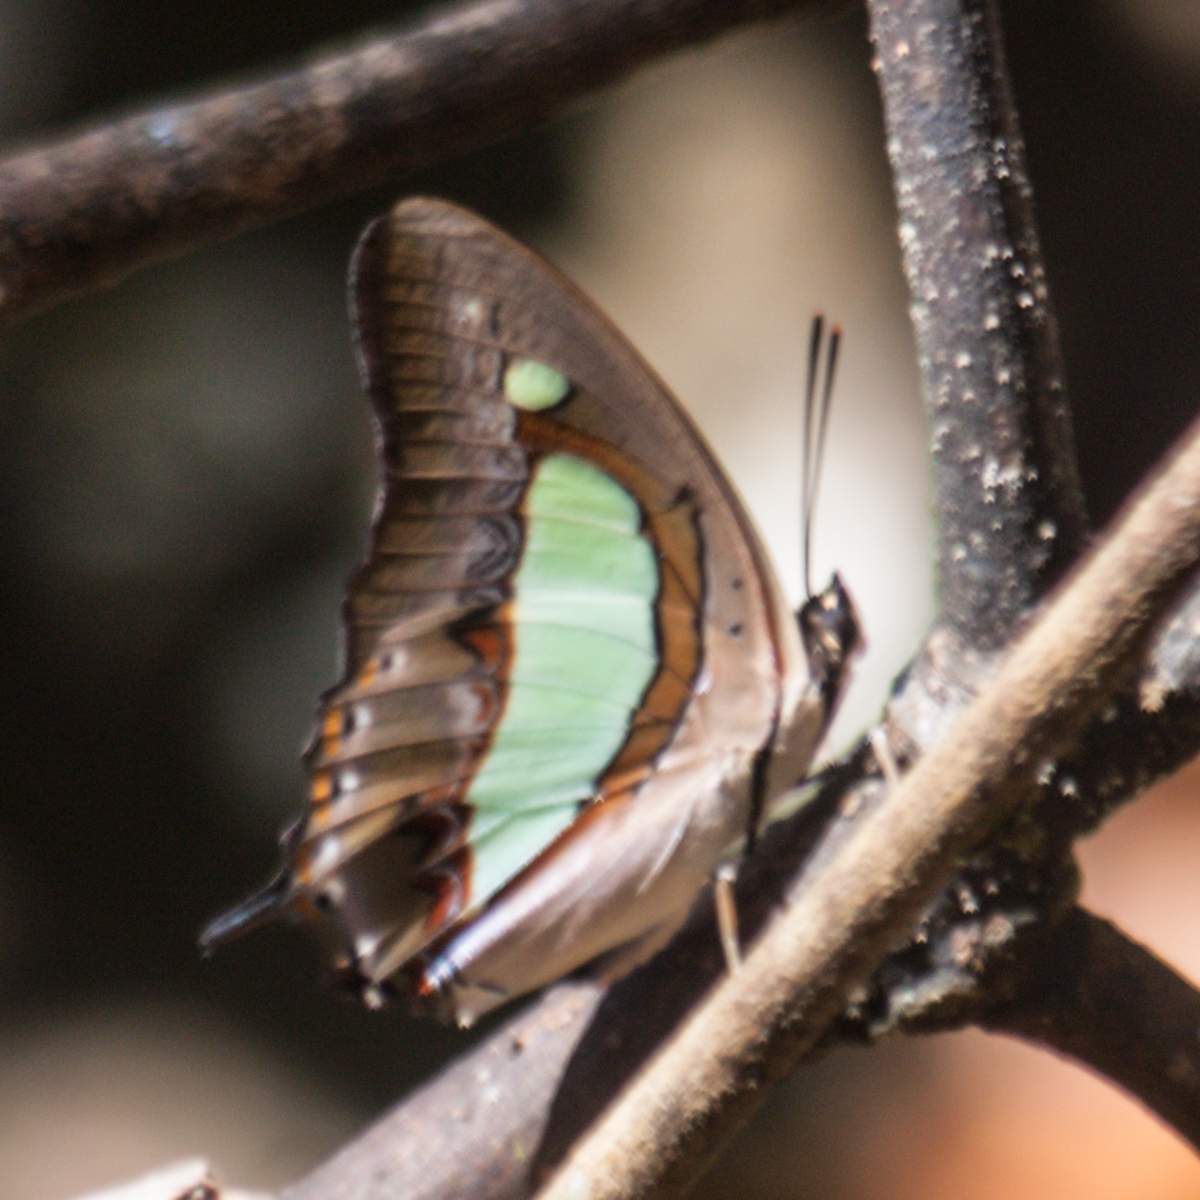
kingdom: Animalia
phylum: Arthropoda
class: Insecta
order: Lepidoptera
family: Nymphalidae
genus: Polyura
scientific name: Polyura athamas
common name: Common nawab
